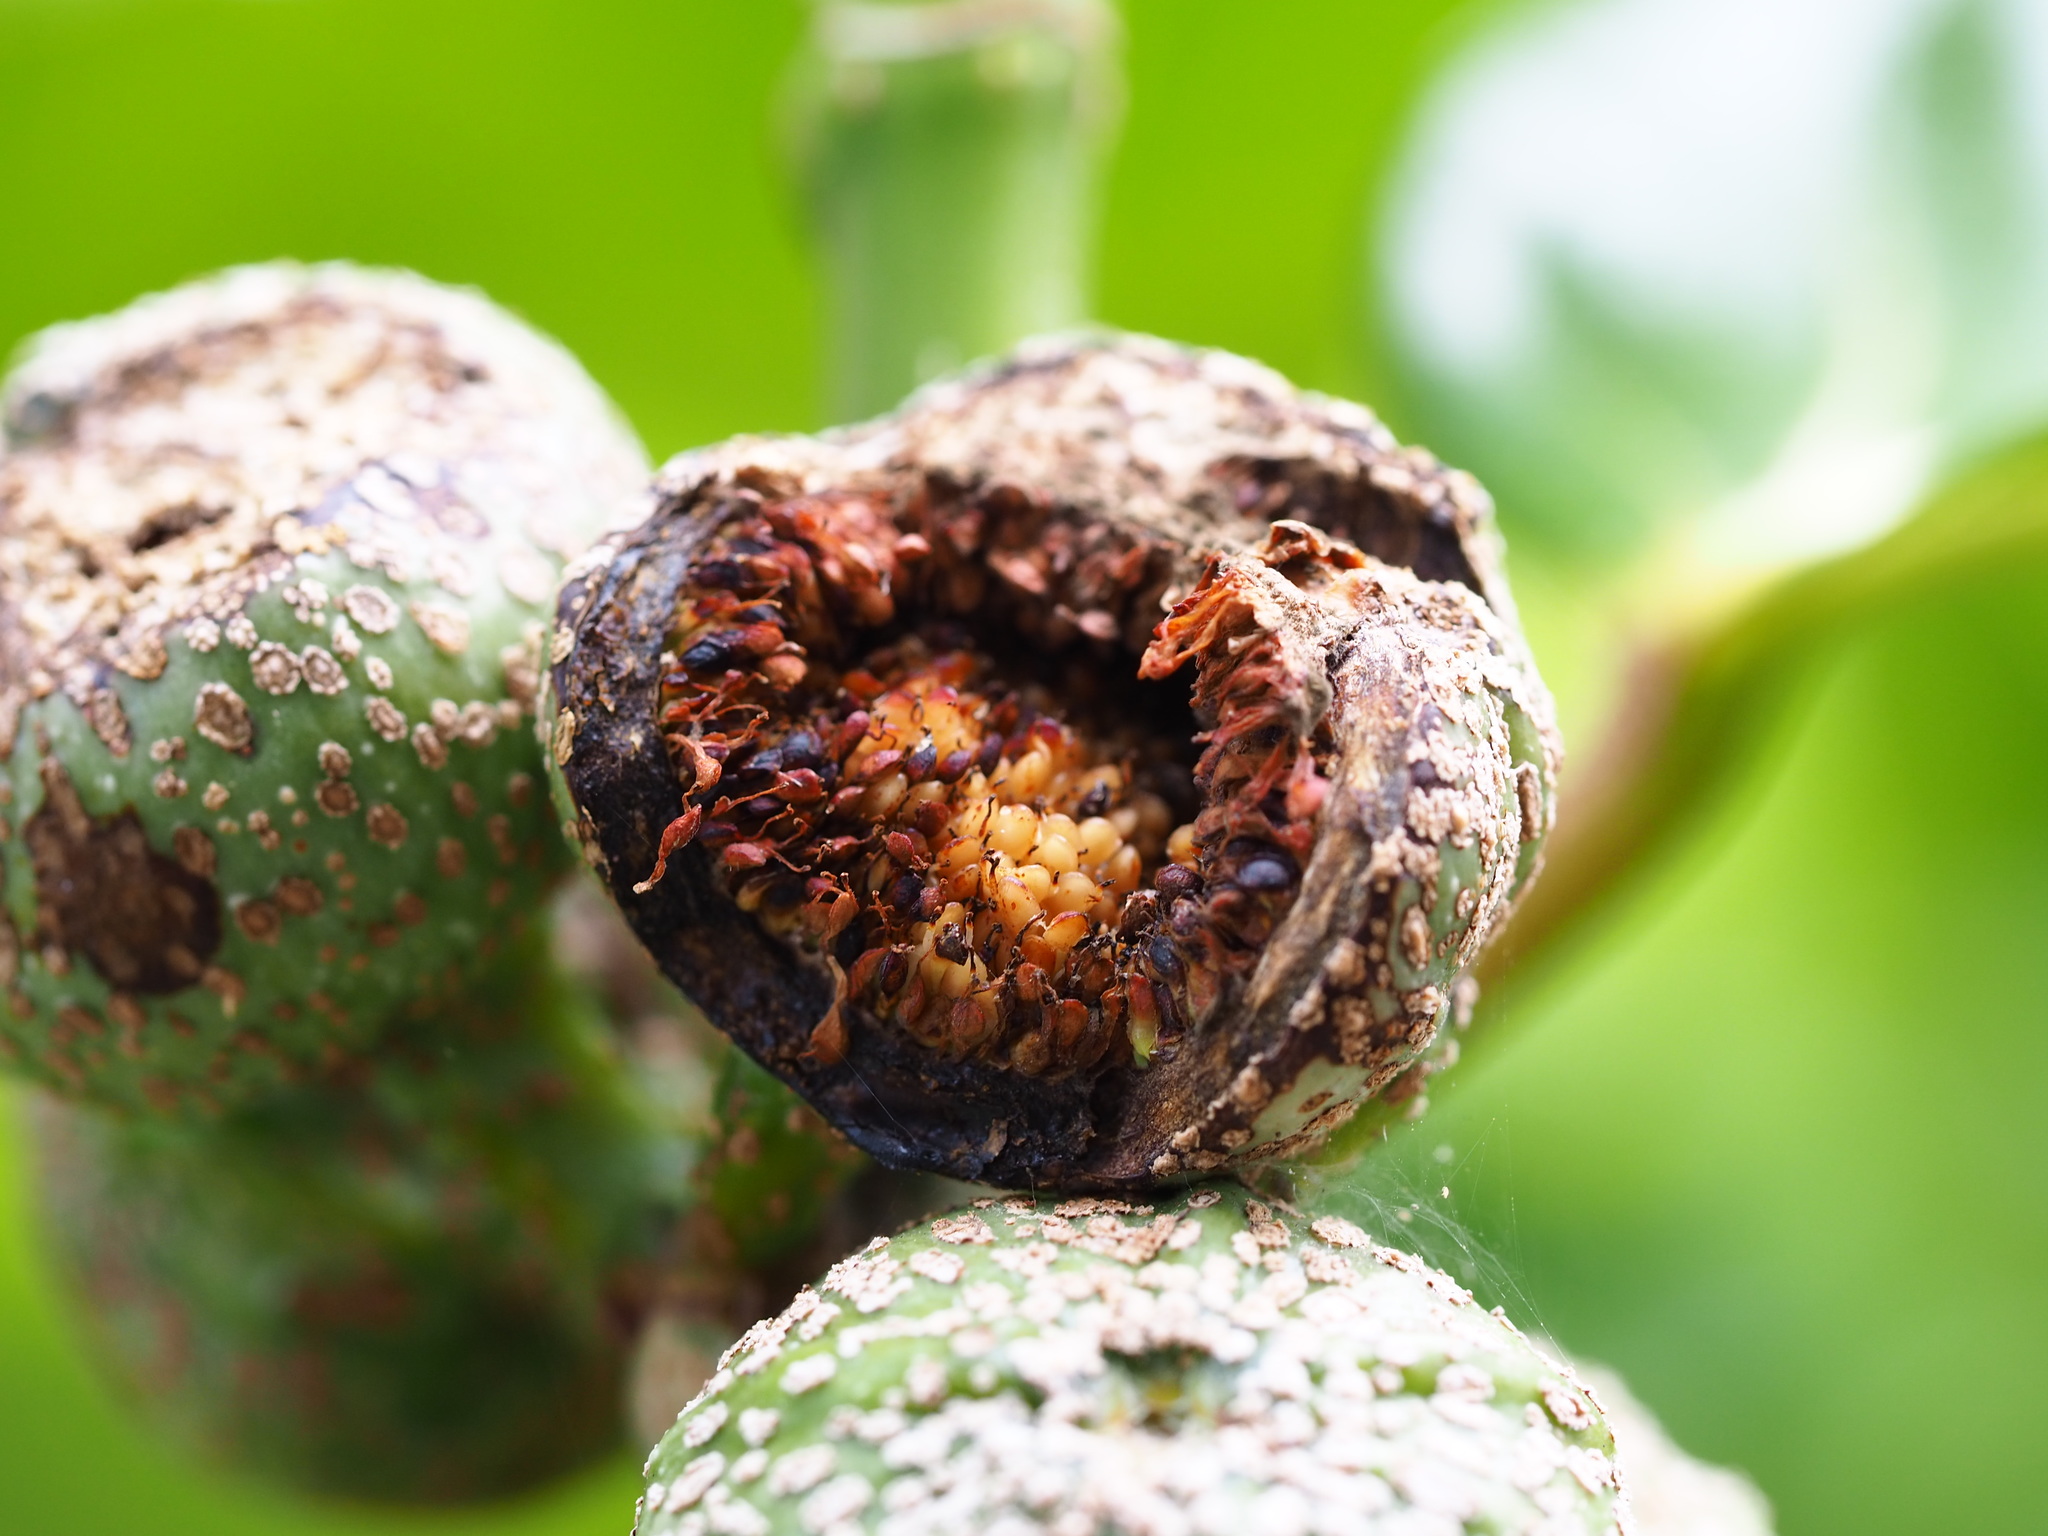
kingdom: Plantae
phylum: Tracheophyta
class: Magnoliopsida
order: Rosales
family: Moraceae
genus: Ficus
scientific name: Ficus septica
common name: Septic fig
